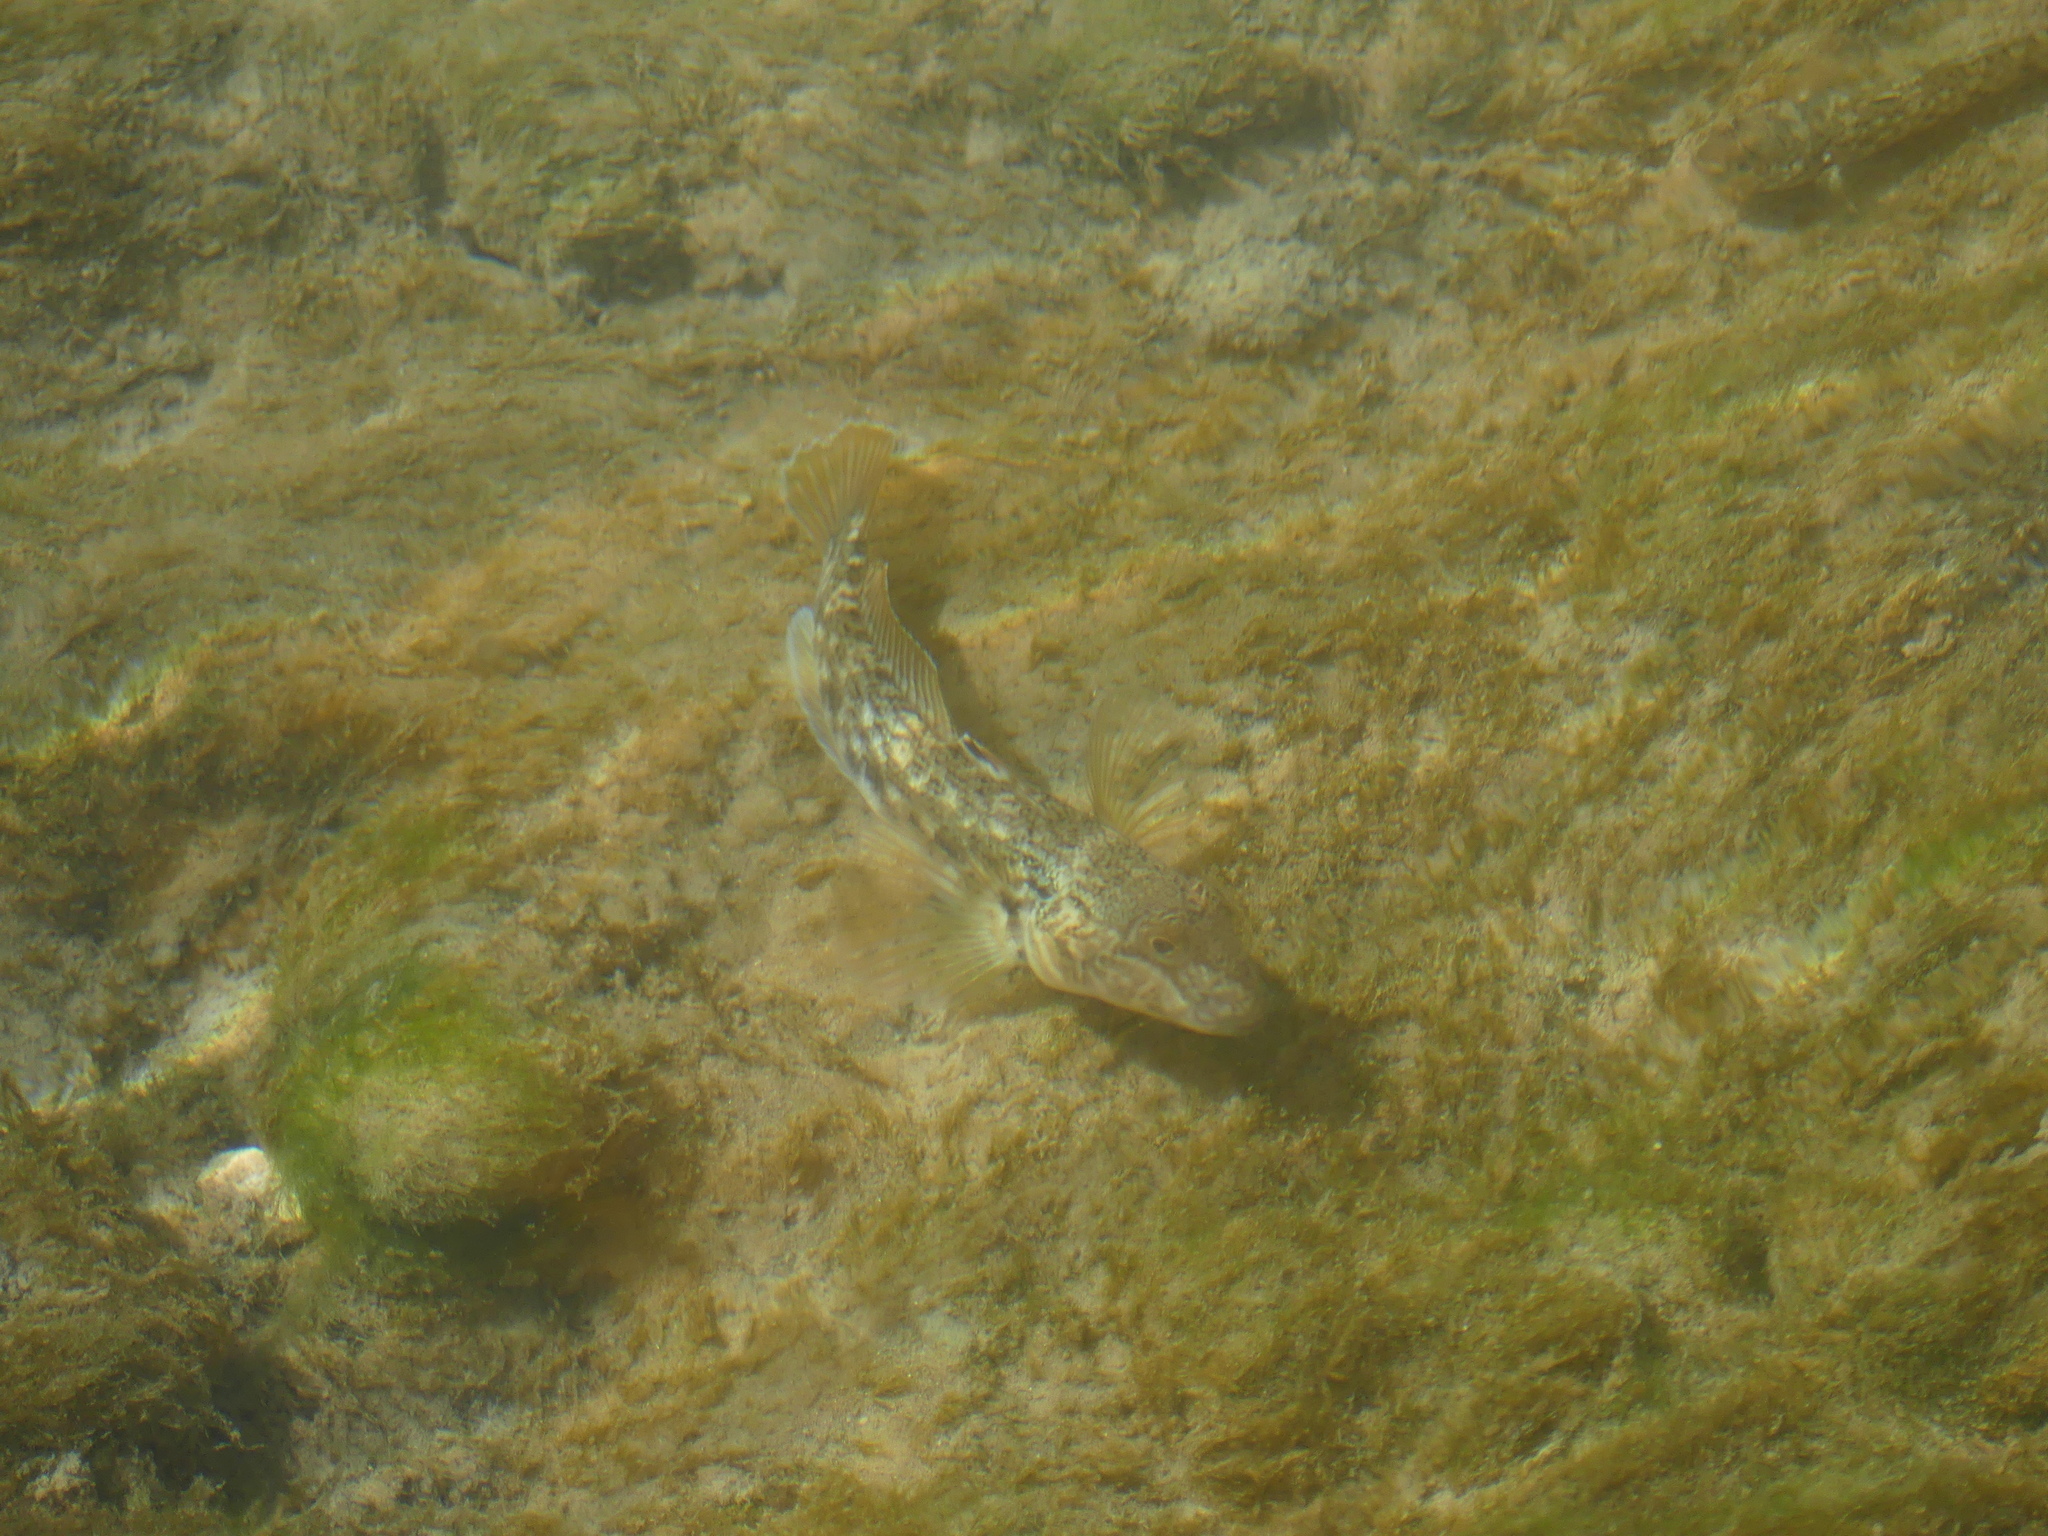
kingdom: Animalia
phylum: Chordata
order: Perciformes
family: Gobiidae
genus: Neogobius
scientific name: Neogobius melanostomus
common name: Round goby
